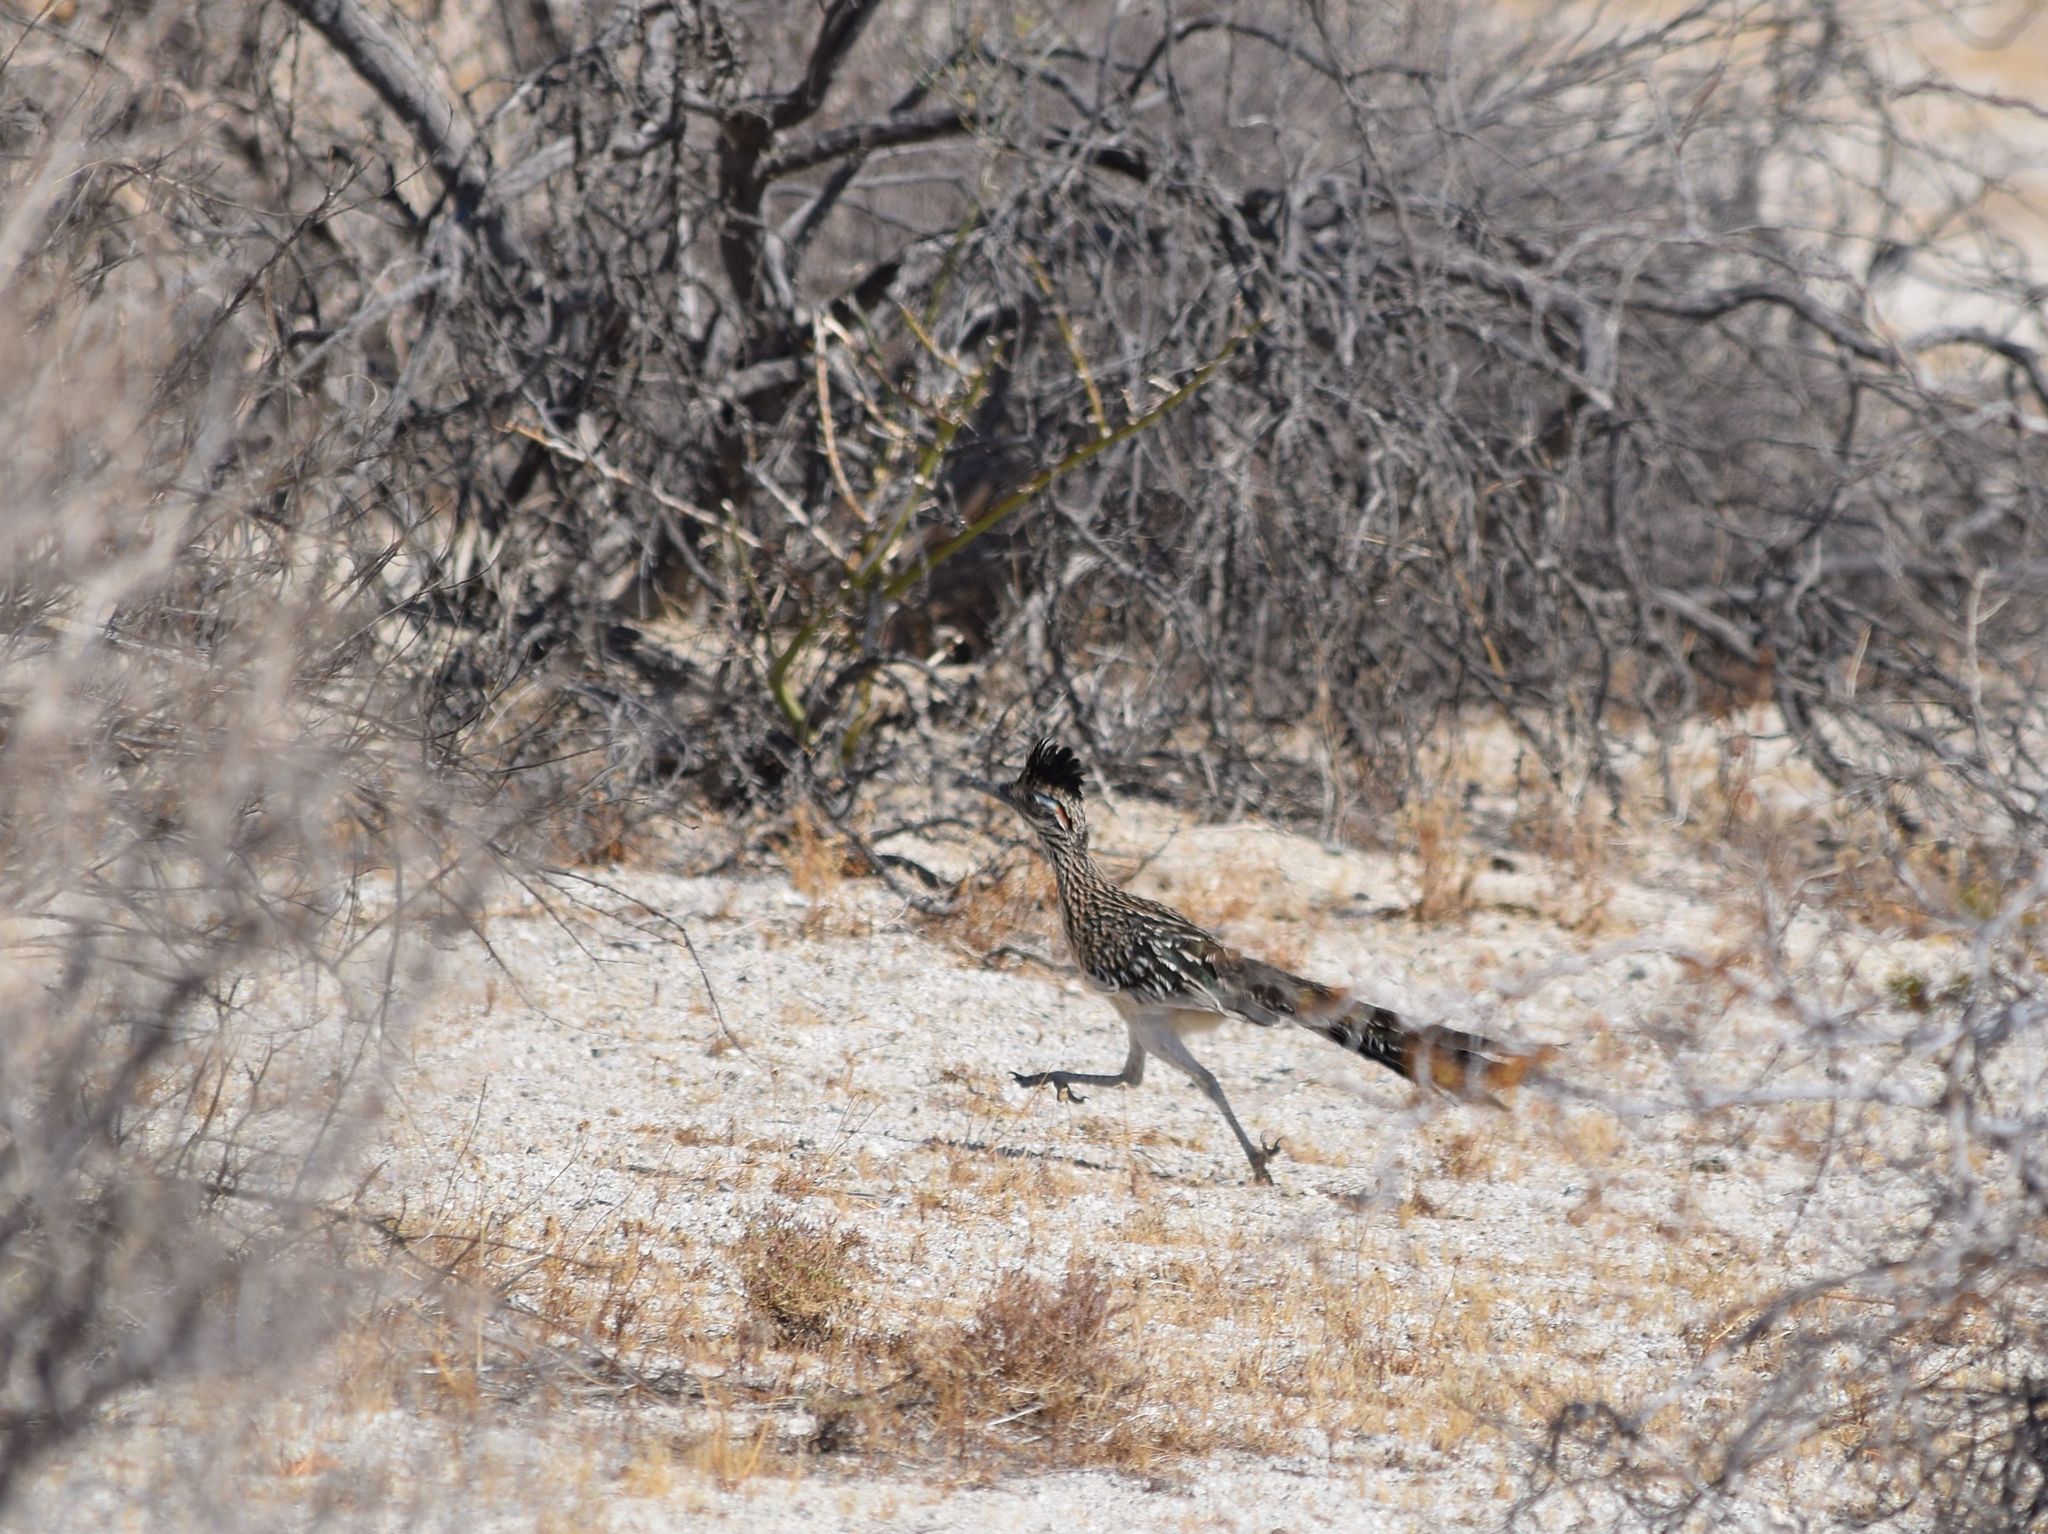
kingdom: Animalia
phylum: Chordata
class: Aves
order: Cuculiformes
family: Cuculidae
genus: Geococcyx
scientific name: Geococcyx californianus
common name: Greater roadrunner
